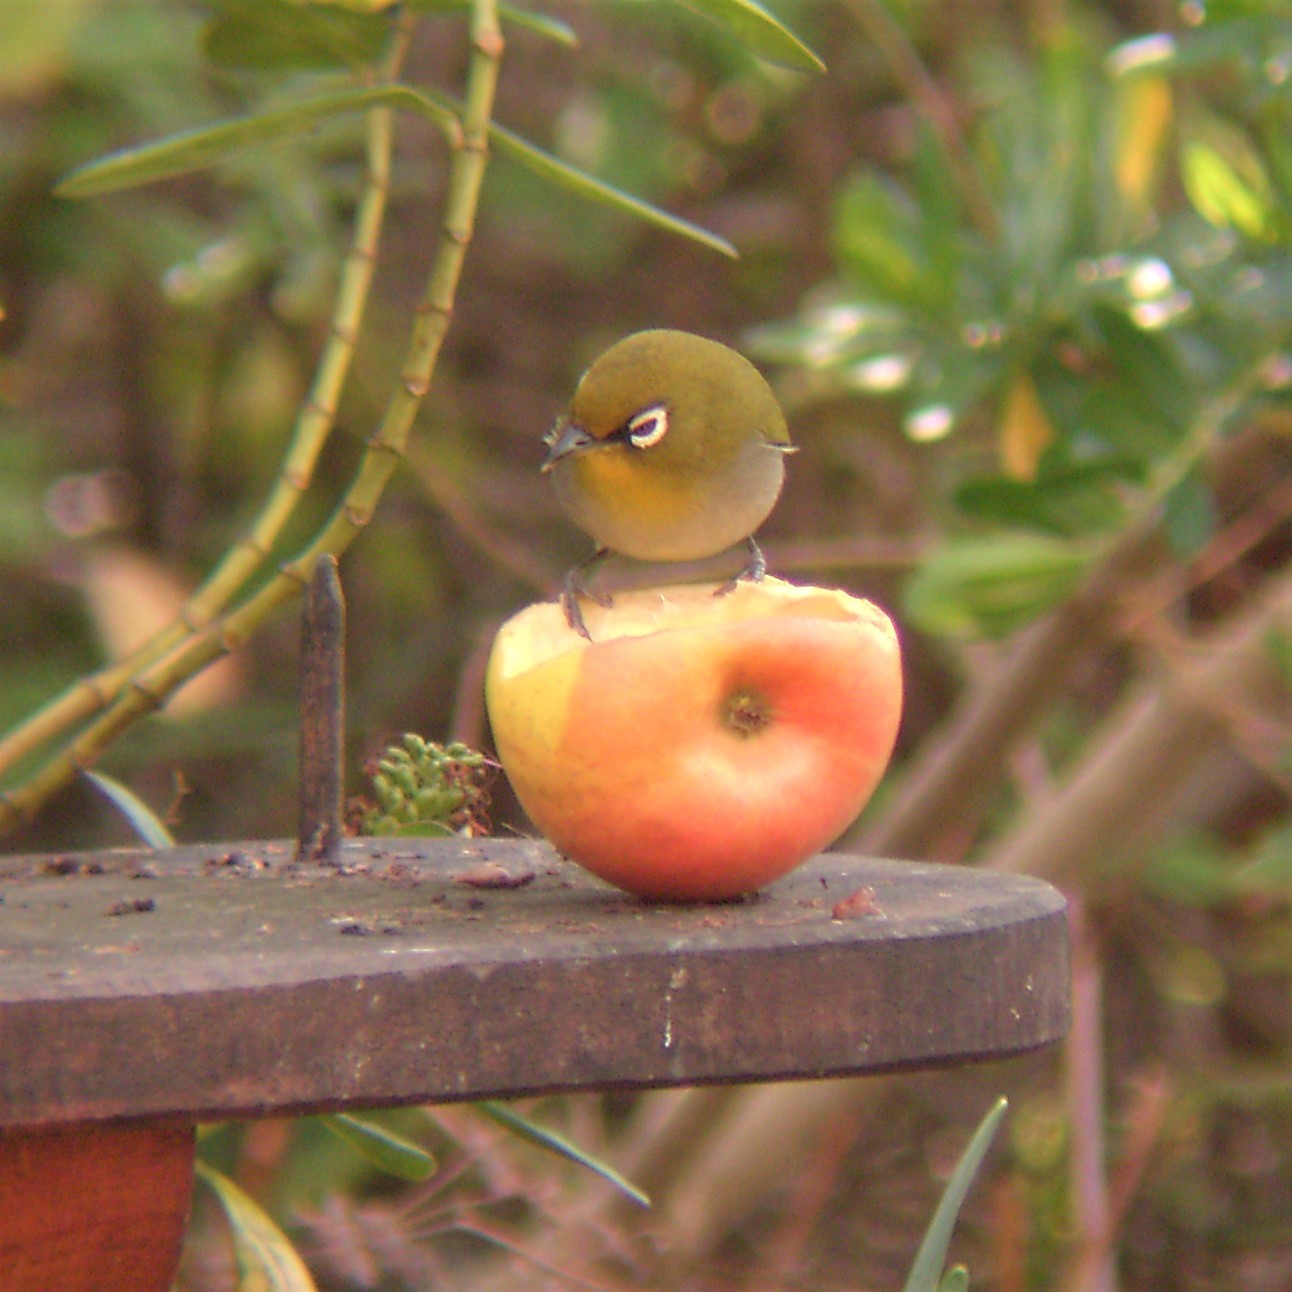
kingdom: Animalia
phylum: Chordata
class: Aves
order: Passeriformes
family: Zosteropidae
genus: Zosterops
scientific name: Zosterops virens
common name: Cape white-eye
